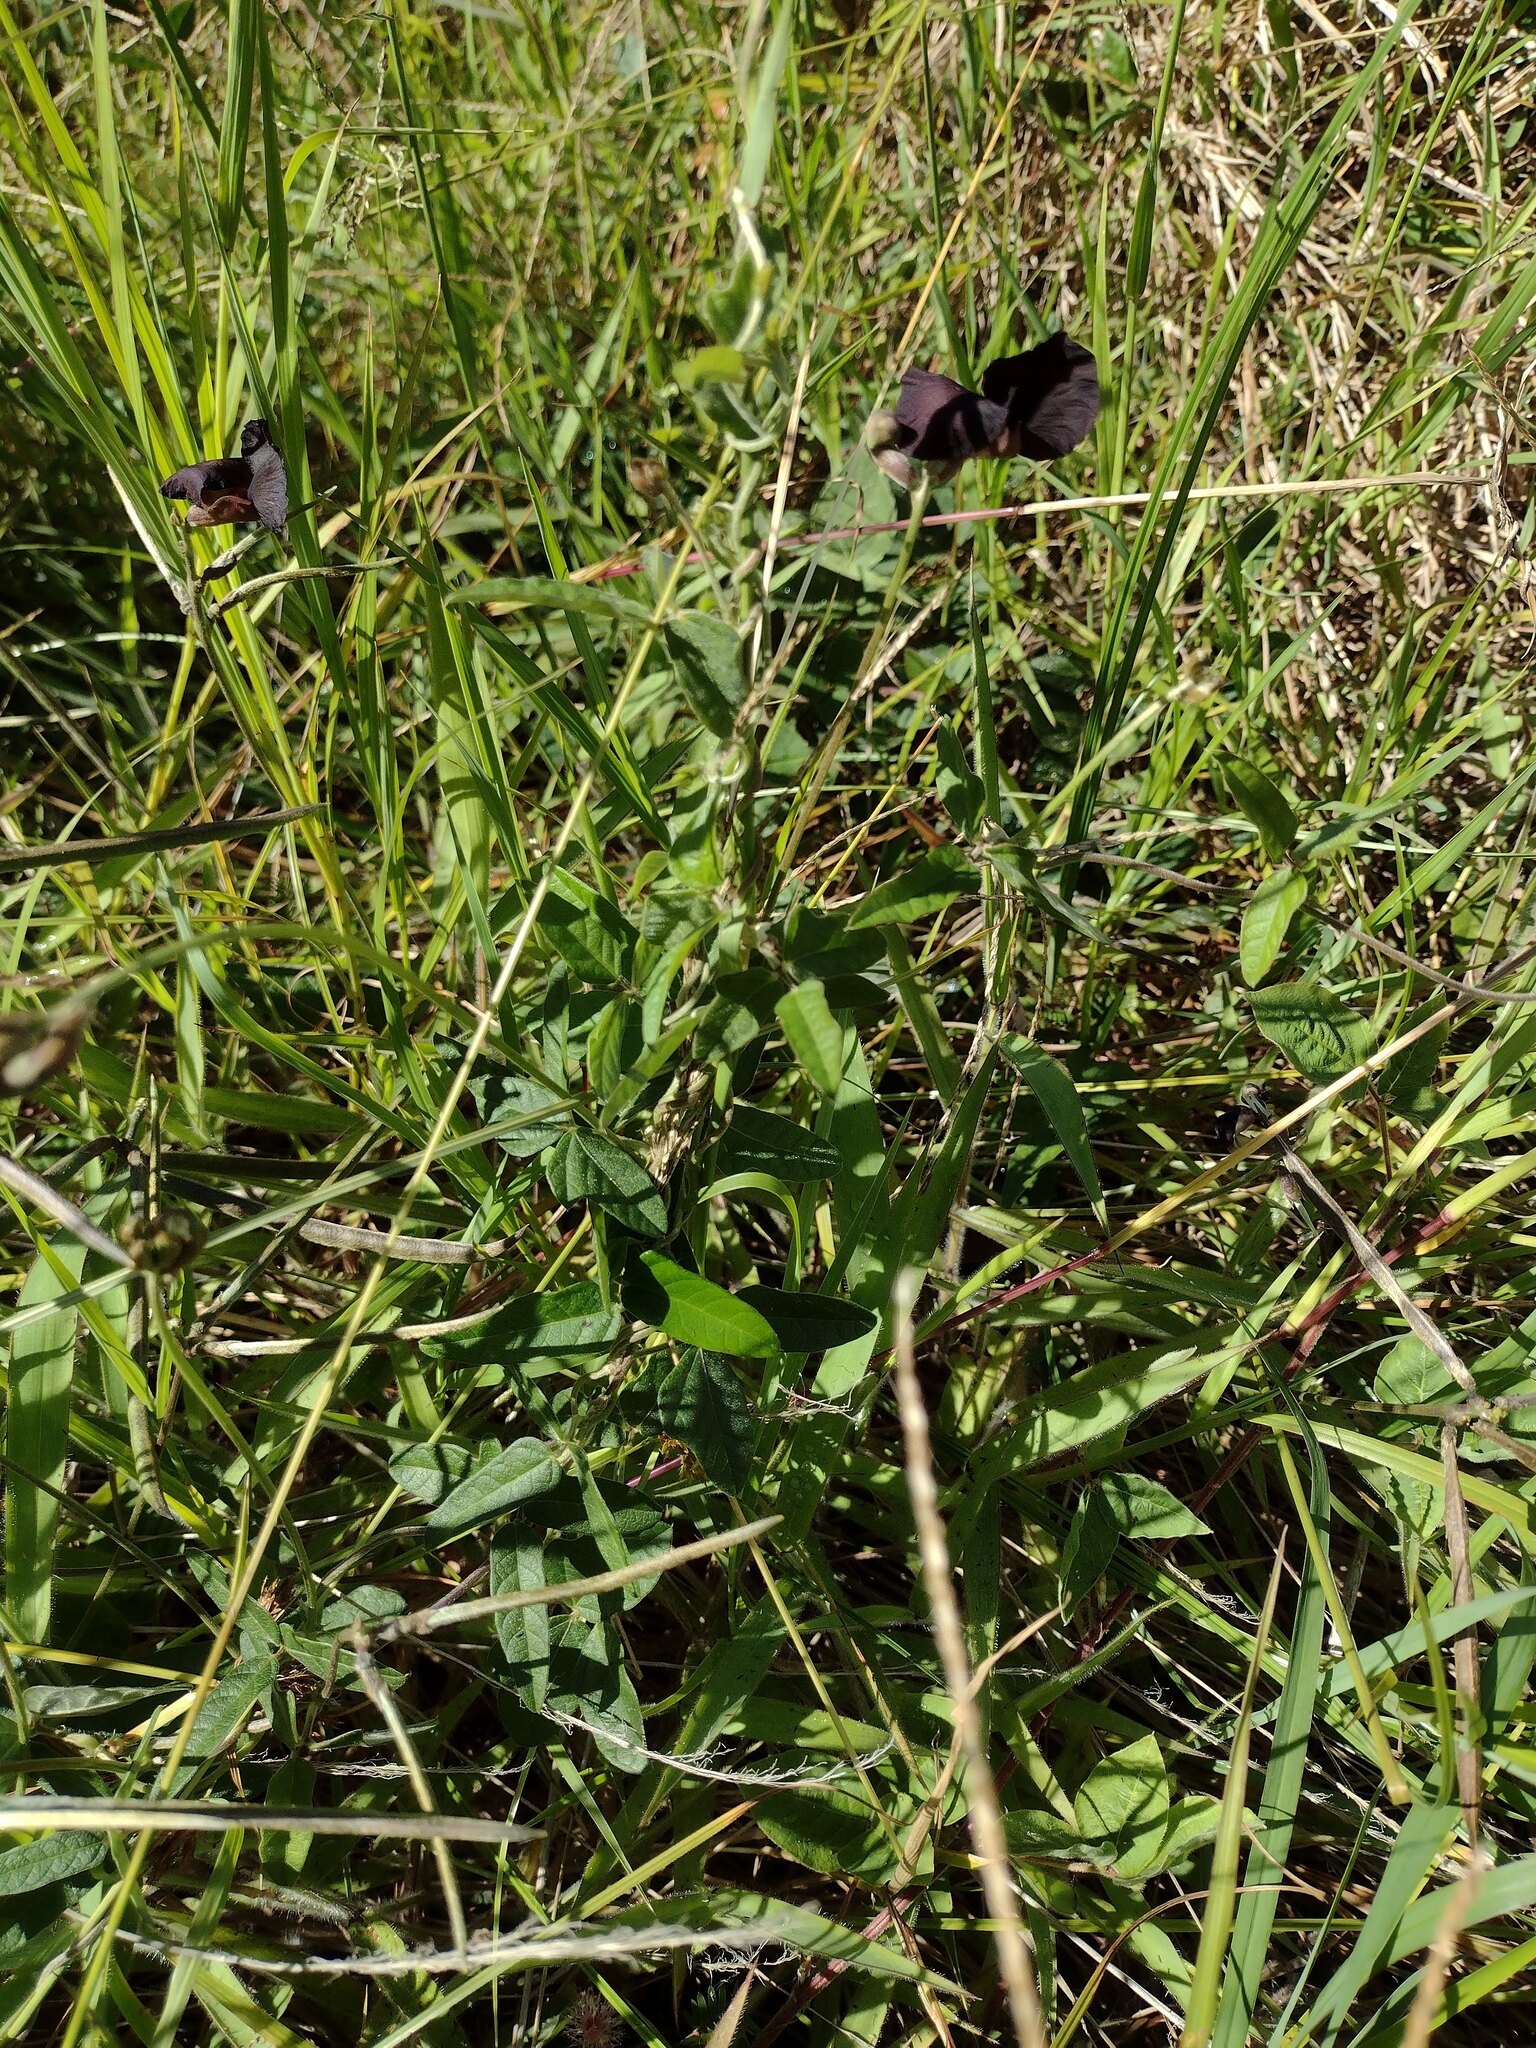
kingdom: Plantae
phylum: Tracheophyta
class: Magnoliopsida
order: Fabales
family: Fabaceae
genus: Macroptilium
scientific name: Macroptilium atropurpureum
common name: Purple bushbean
